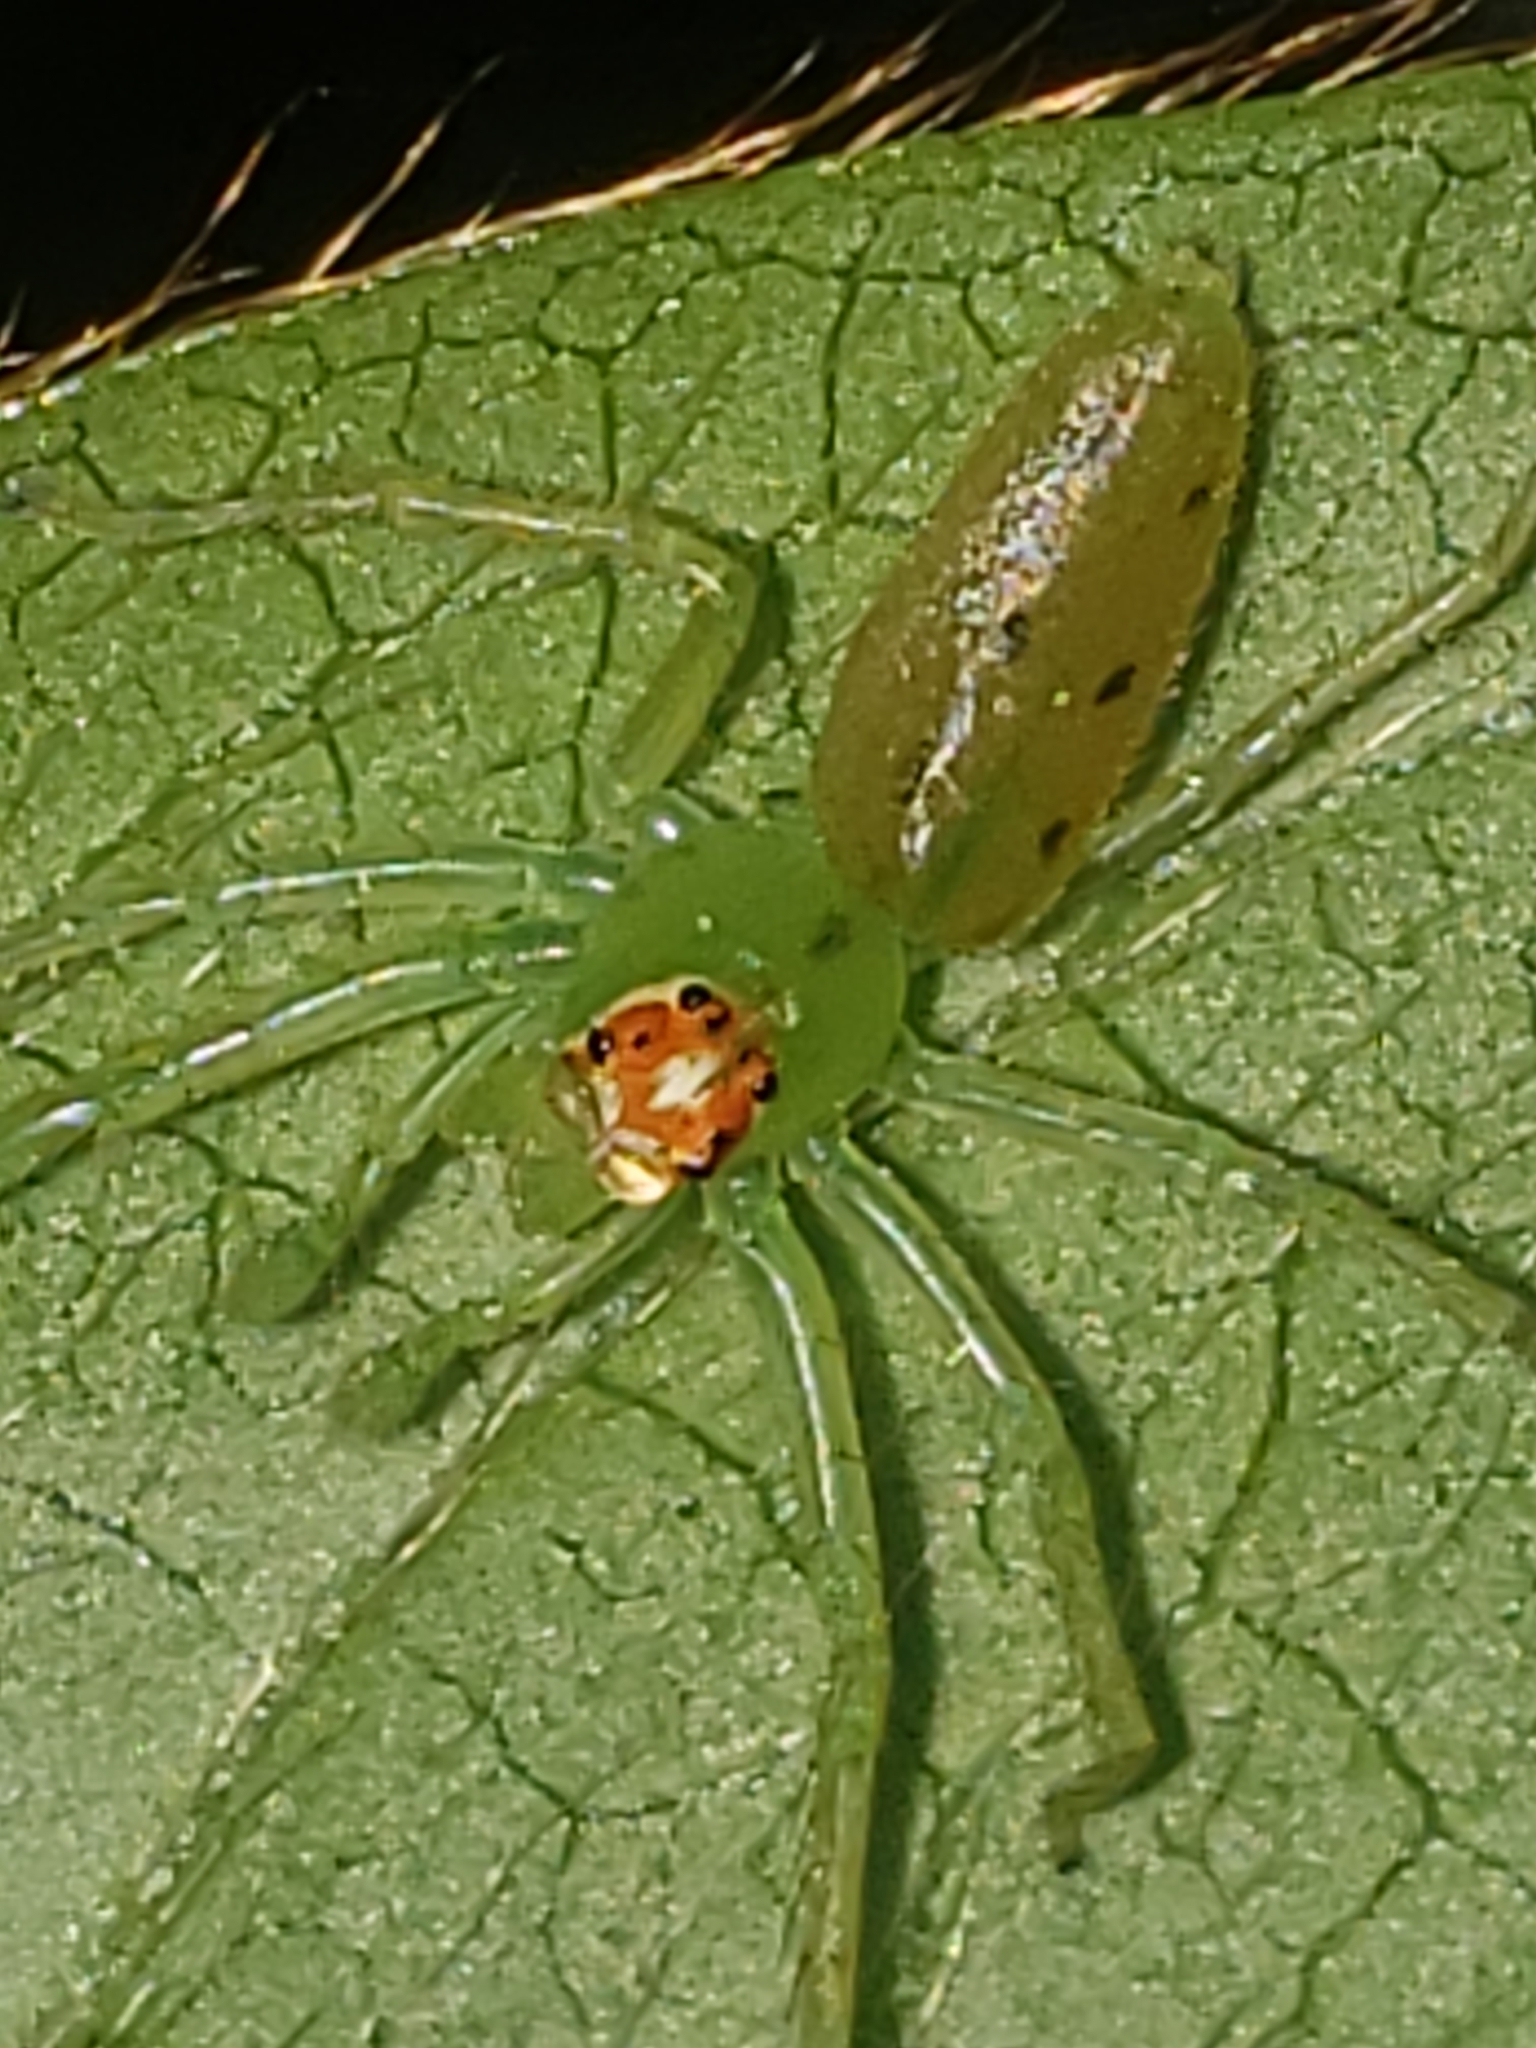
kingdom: Animalia
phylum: Arthropoda
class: Arachnida
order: Araneae
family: Salticidae
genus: Lyssomanes
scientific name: Lyssomanes viridis
